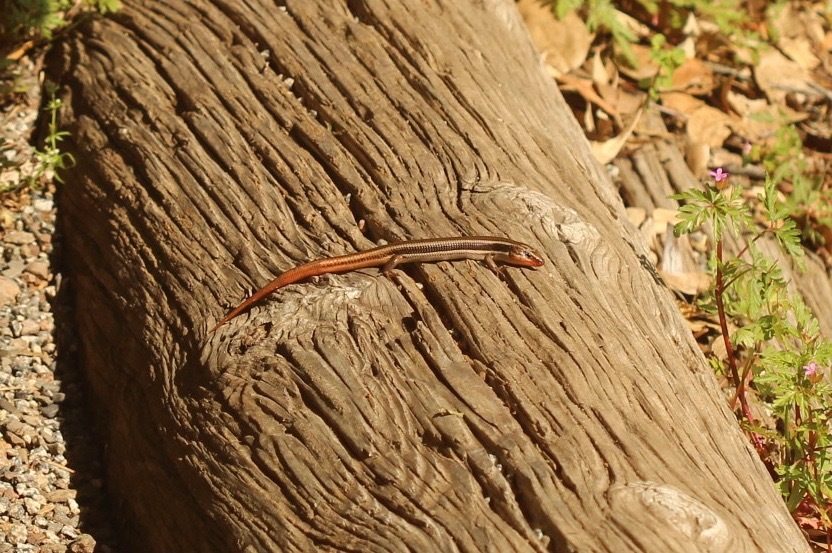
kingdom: Animalia
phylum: Chordata
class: Squamata
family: Scincidae
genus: Plestiodon
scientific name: Plestiodon skiltonianus
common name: Coronado island skink [interparietalis]
